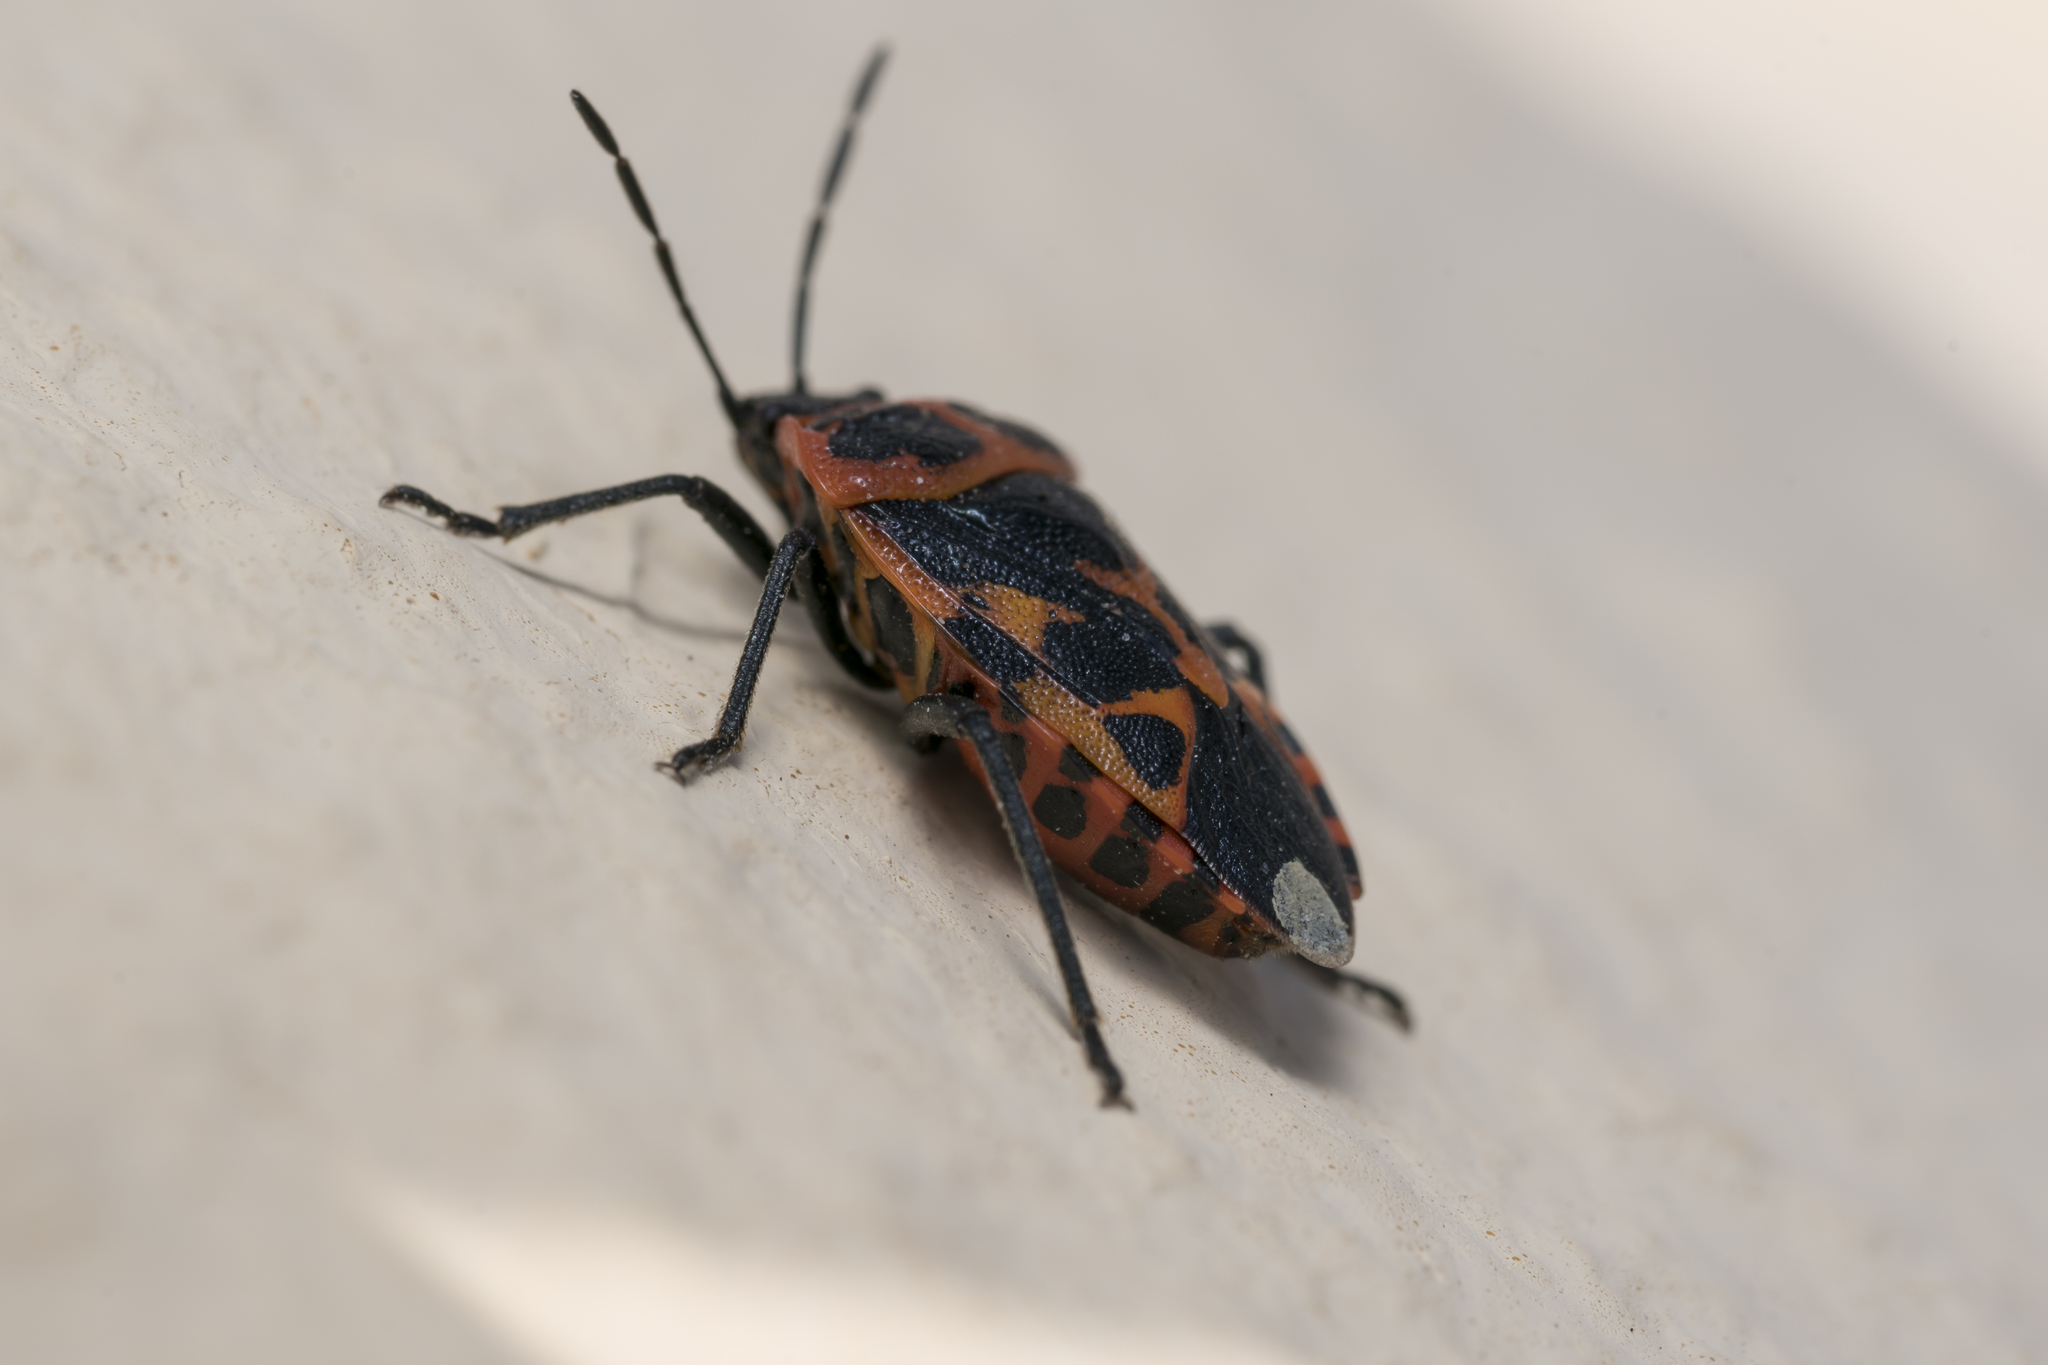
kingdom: Animalia
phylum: Arthropoda
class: Insecta
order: Hemiptera
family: Pentatomidae
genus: Eurydema
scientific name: Eurydema eckerleini
